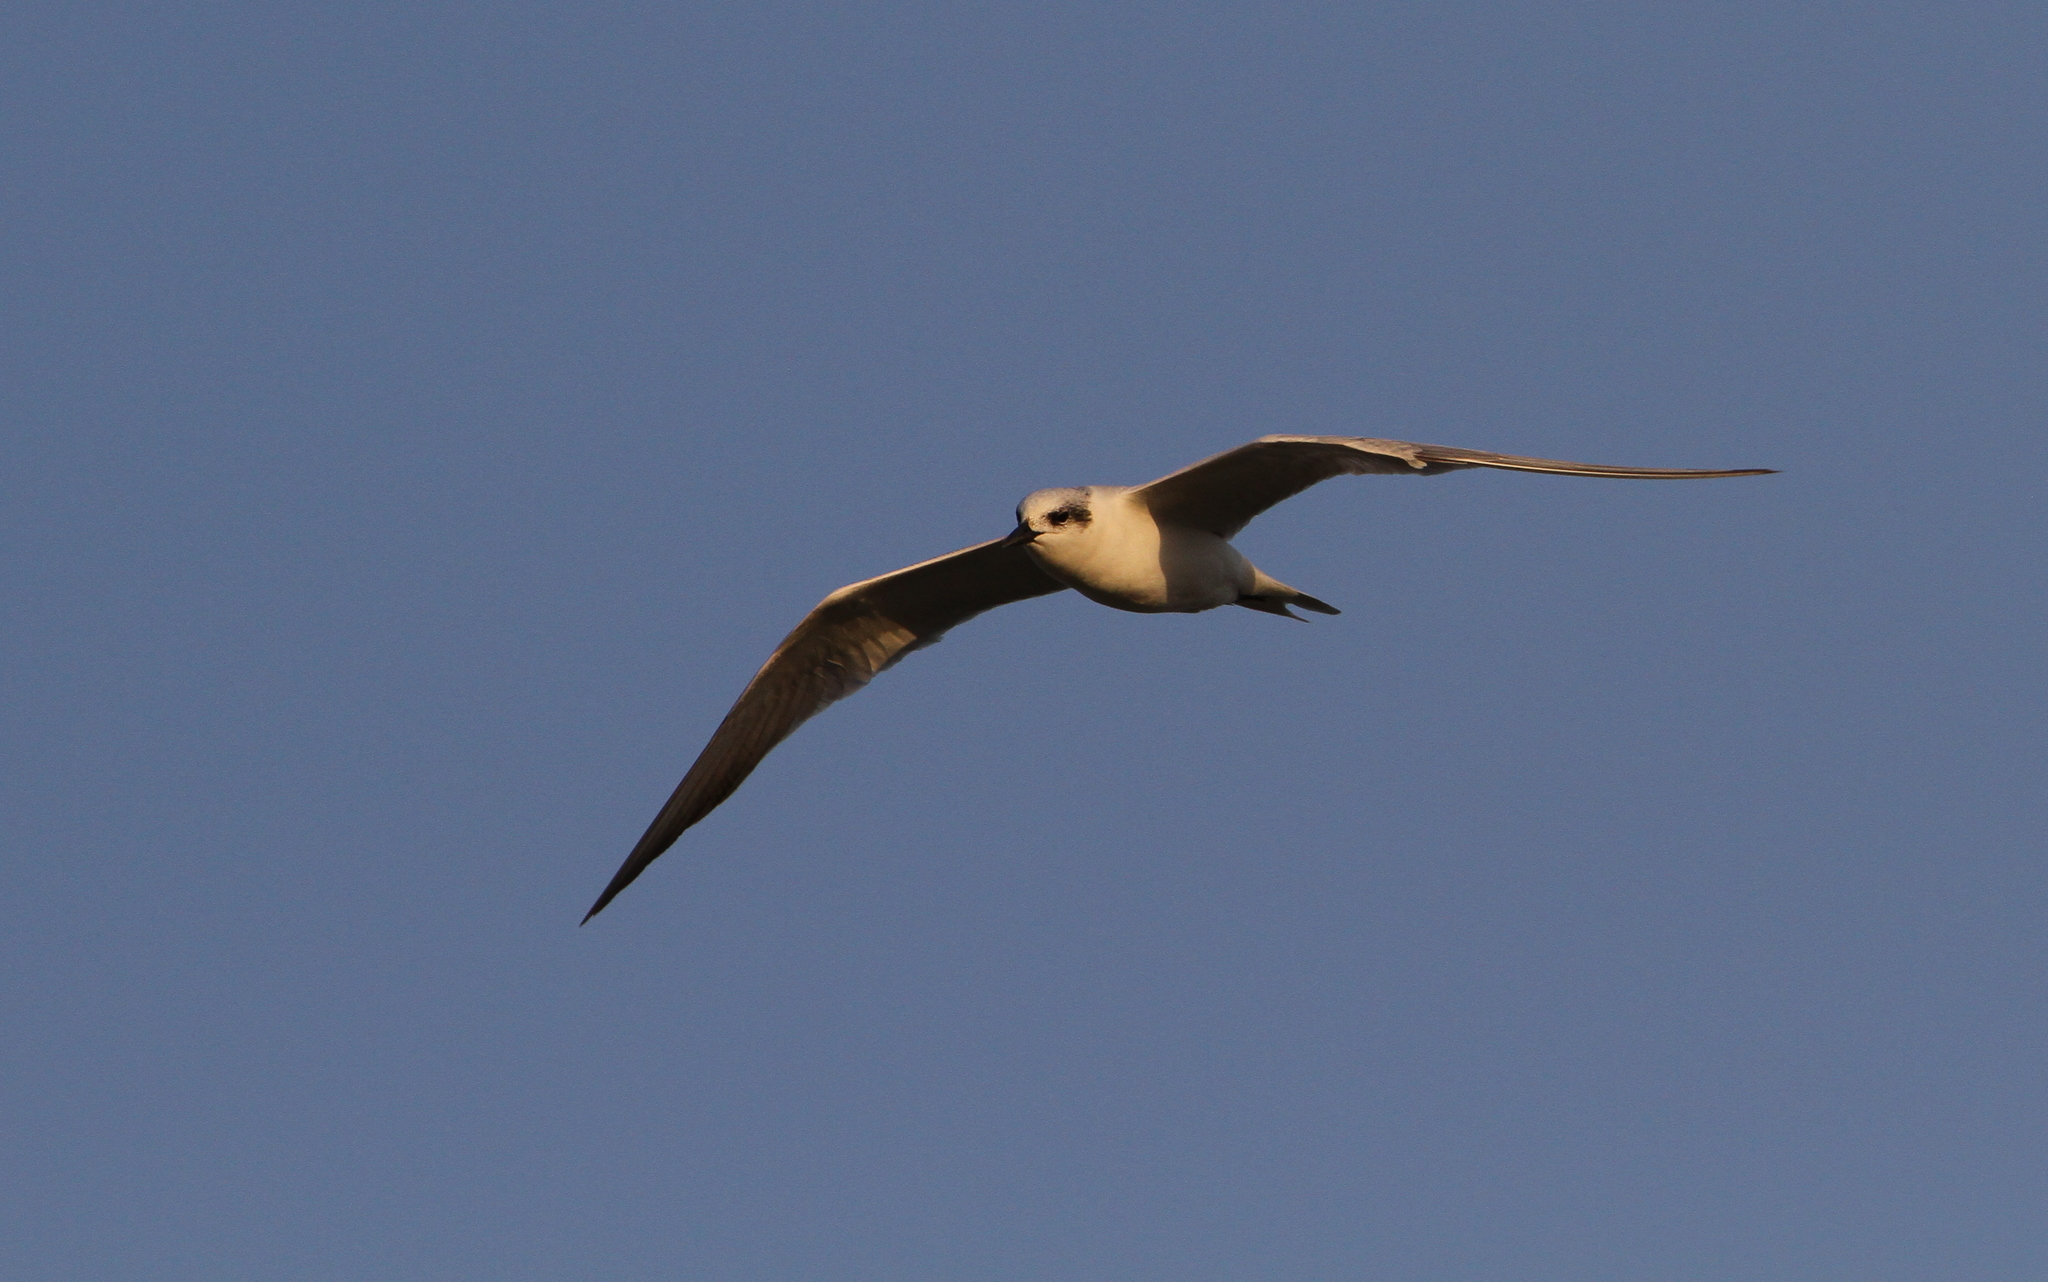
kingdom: Animalia
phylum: Chordata
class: Aves
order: Charadriiformes
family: Laridae
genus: Gelochelidon
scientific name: Gelochelidon nilotica
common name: Gull-billed tern
